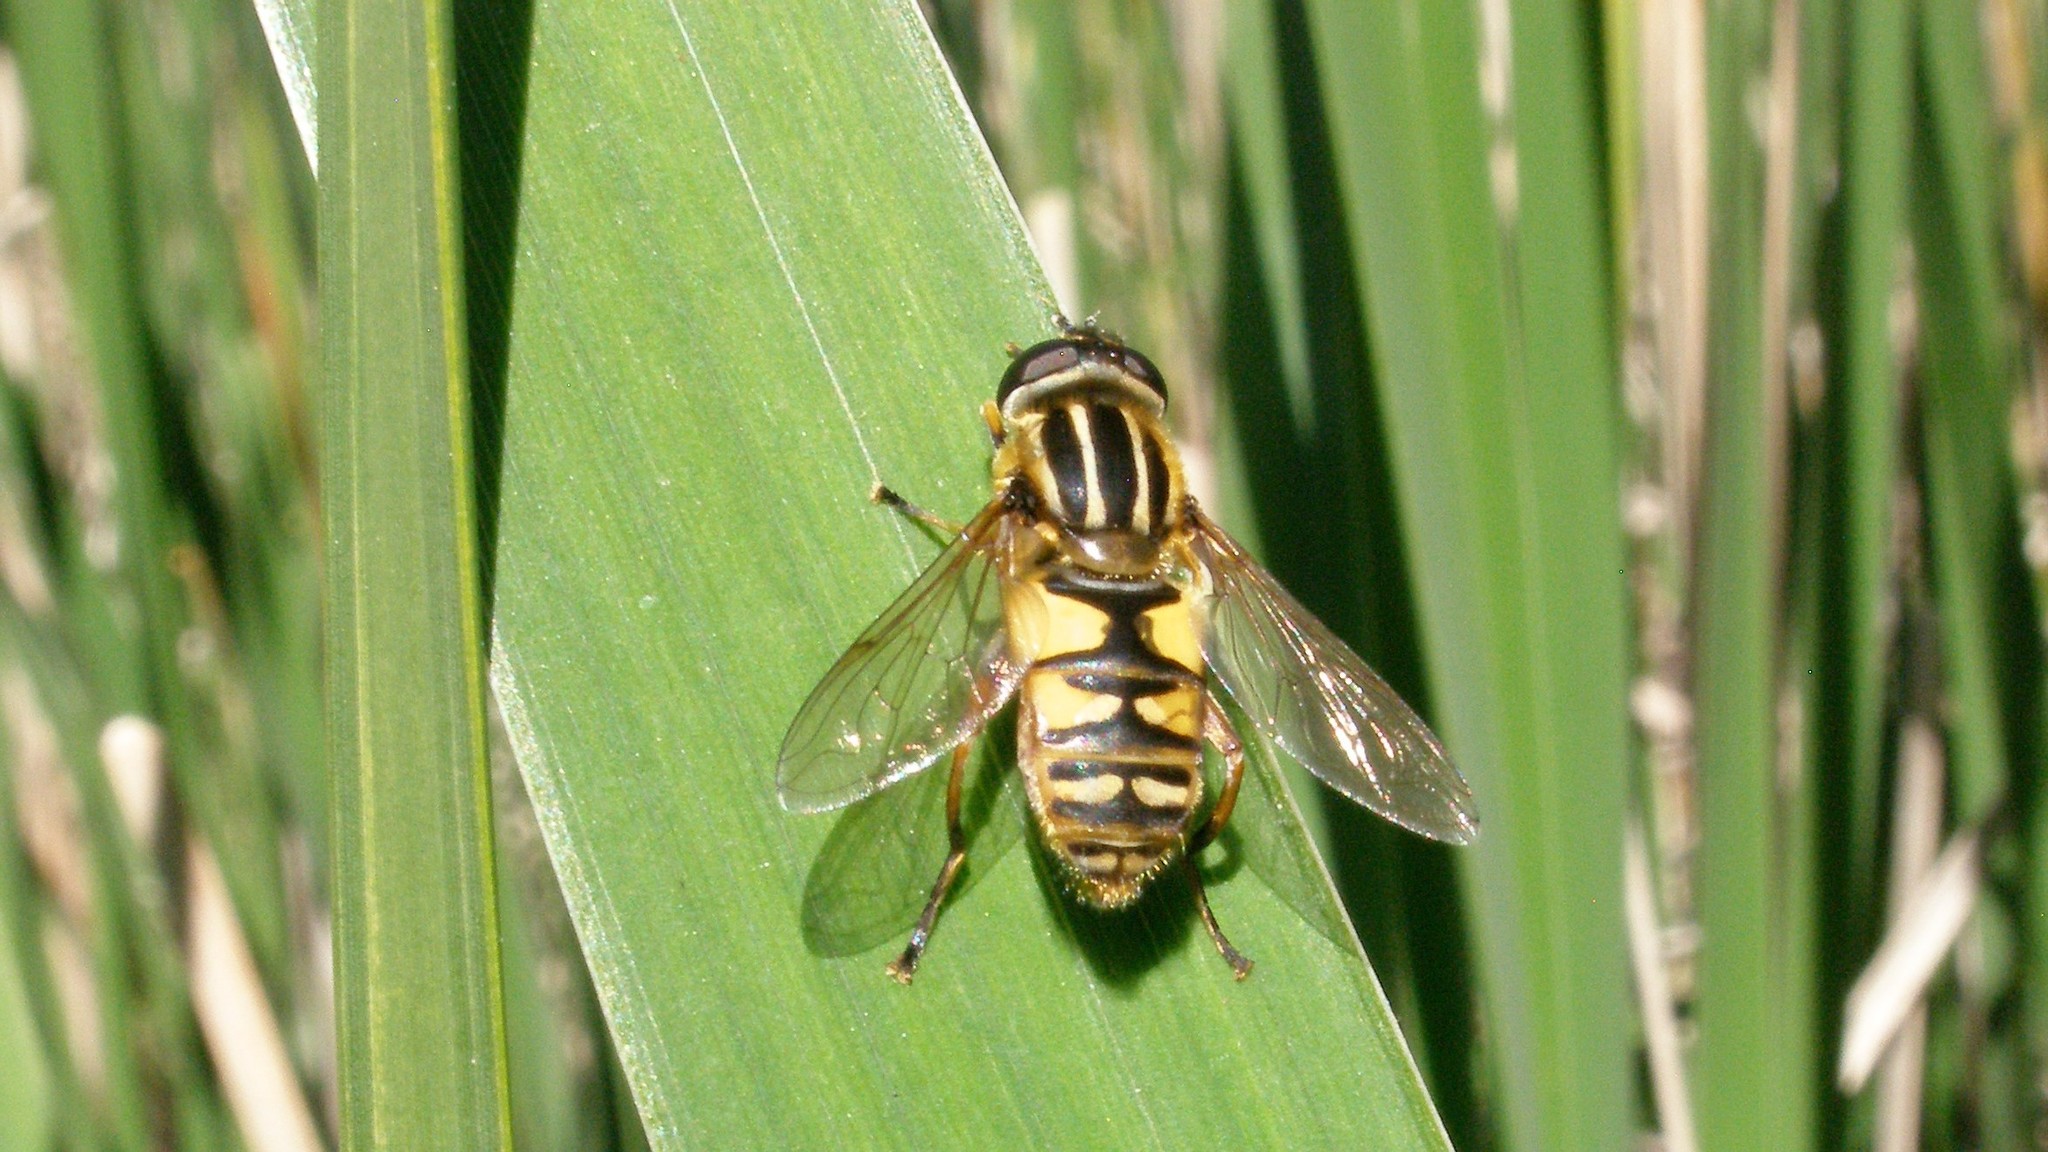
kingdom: Animalia
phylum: Arthropoda
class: Insecta
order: Diptera
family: Syrphidae
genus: Helophilus
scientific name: Helophilus pendulus
